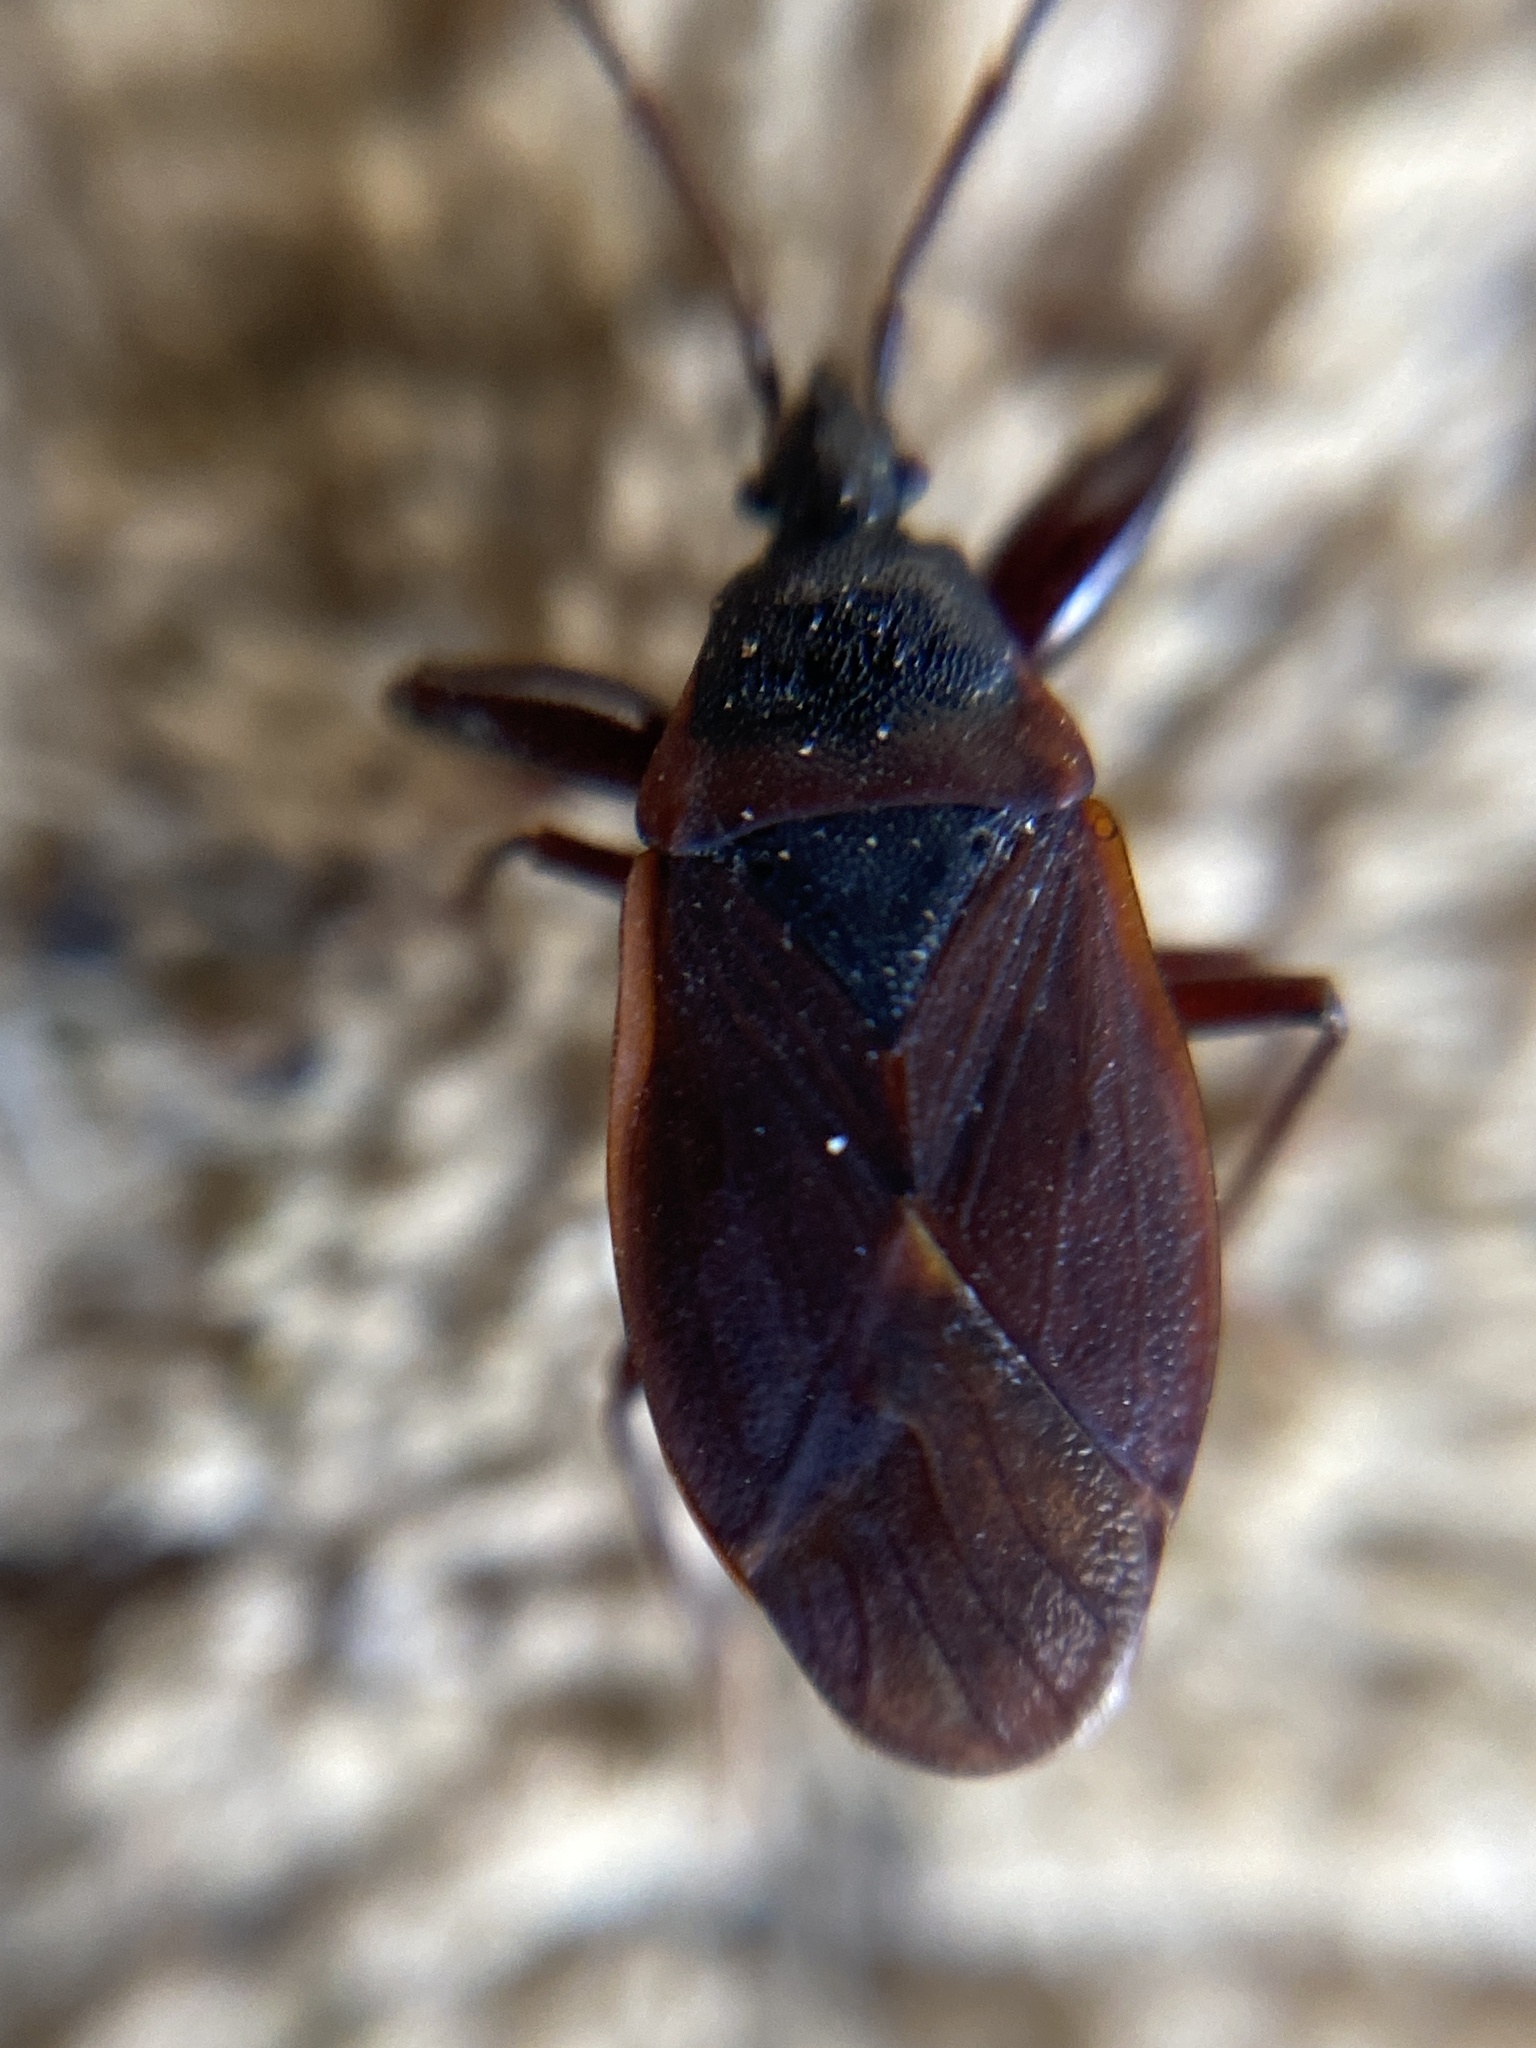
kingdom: Animalia
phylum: Arthropoda
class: Insecta
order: Hemiptera
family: Rhyparochromidae
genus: Gastrodes
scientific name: Gastrodes grossipes
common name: Pine cone bug
